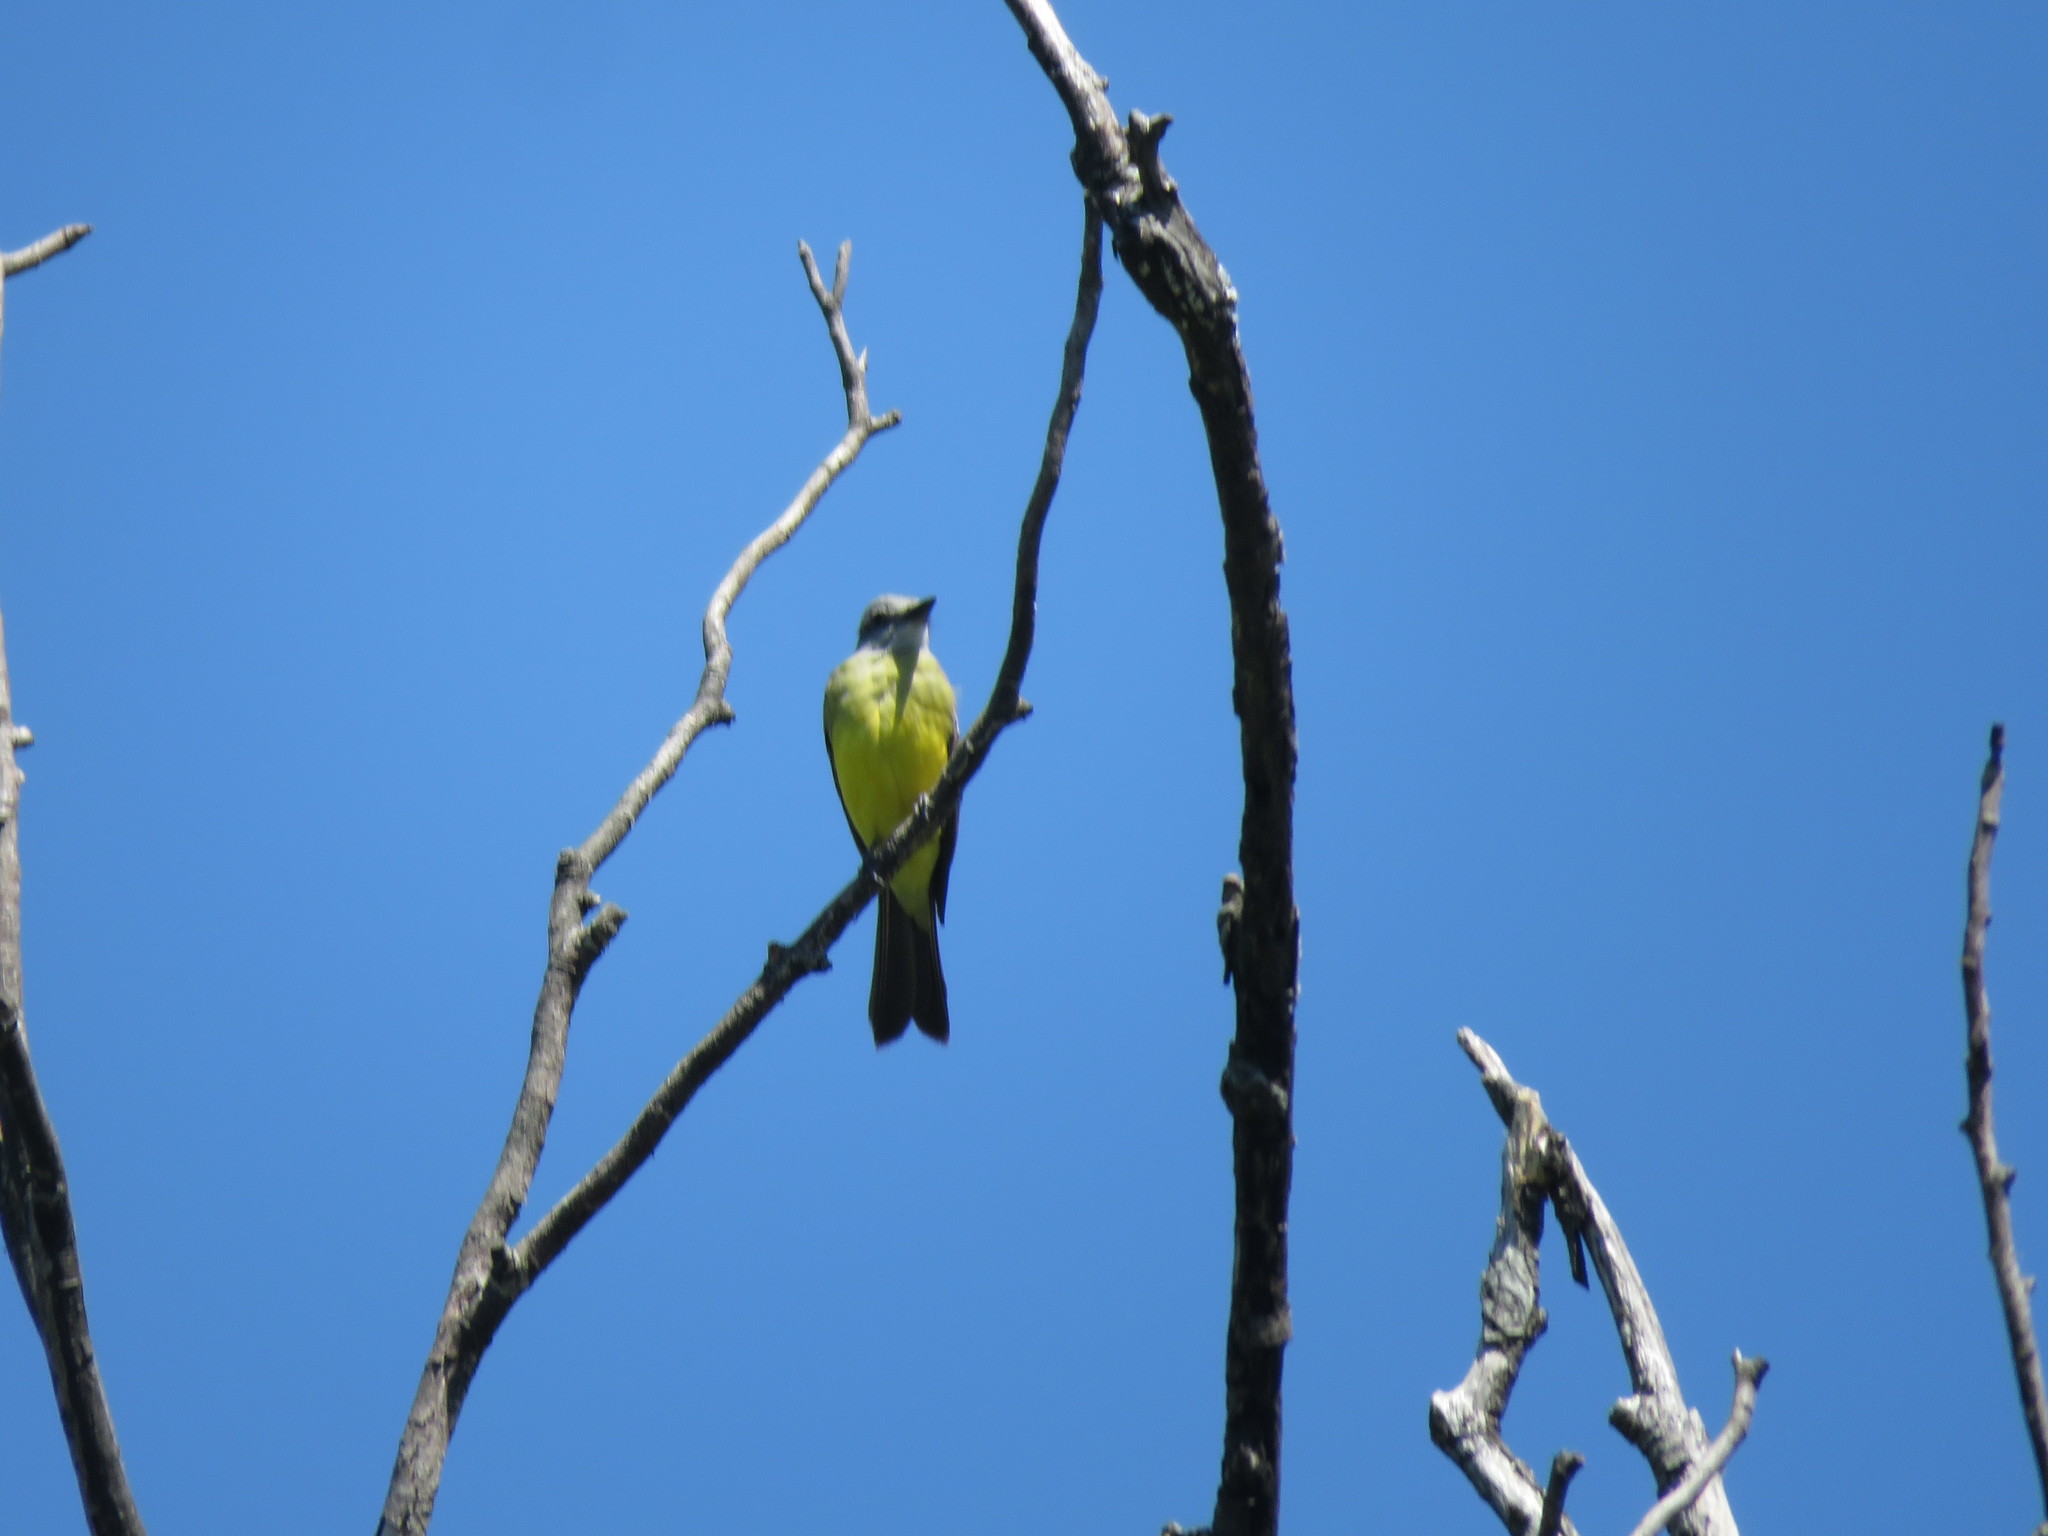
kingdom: Animalia
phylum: Chordata
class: Aves
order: Passeriformes
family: Tyrannidae
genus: Tyrannus
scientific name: Tyrannus melancholicus
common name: Tropical kingbird
